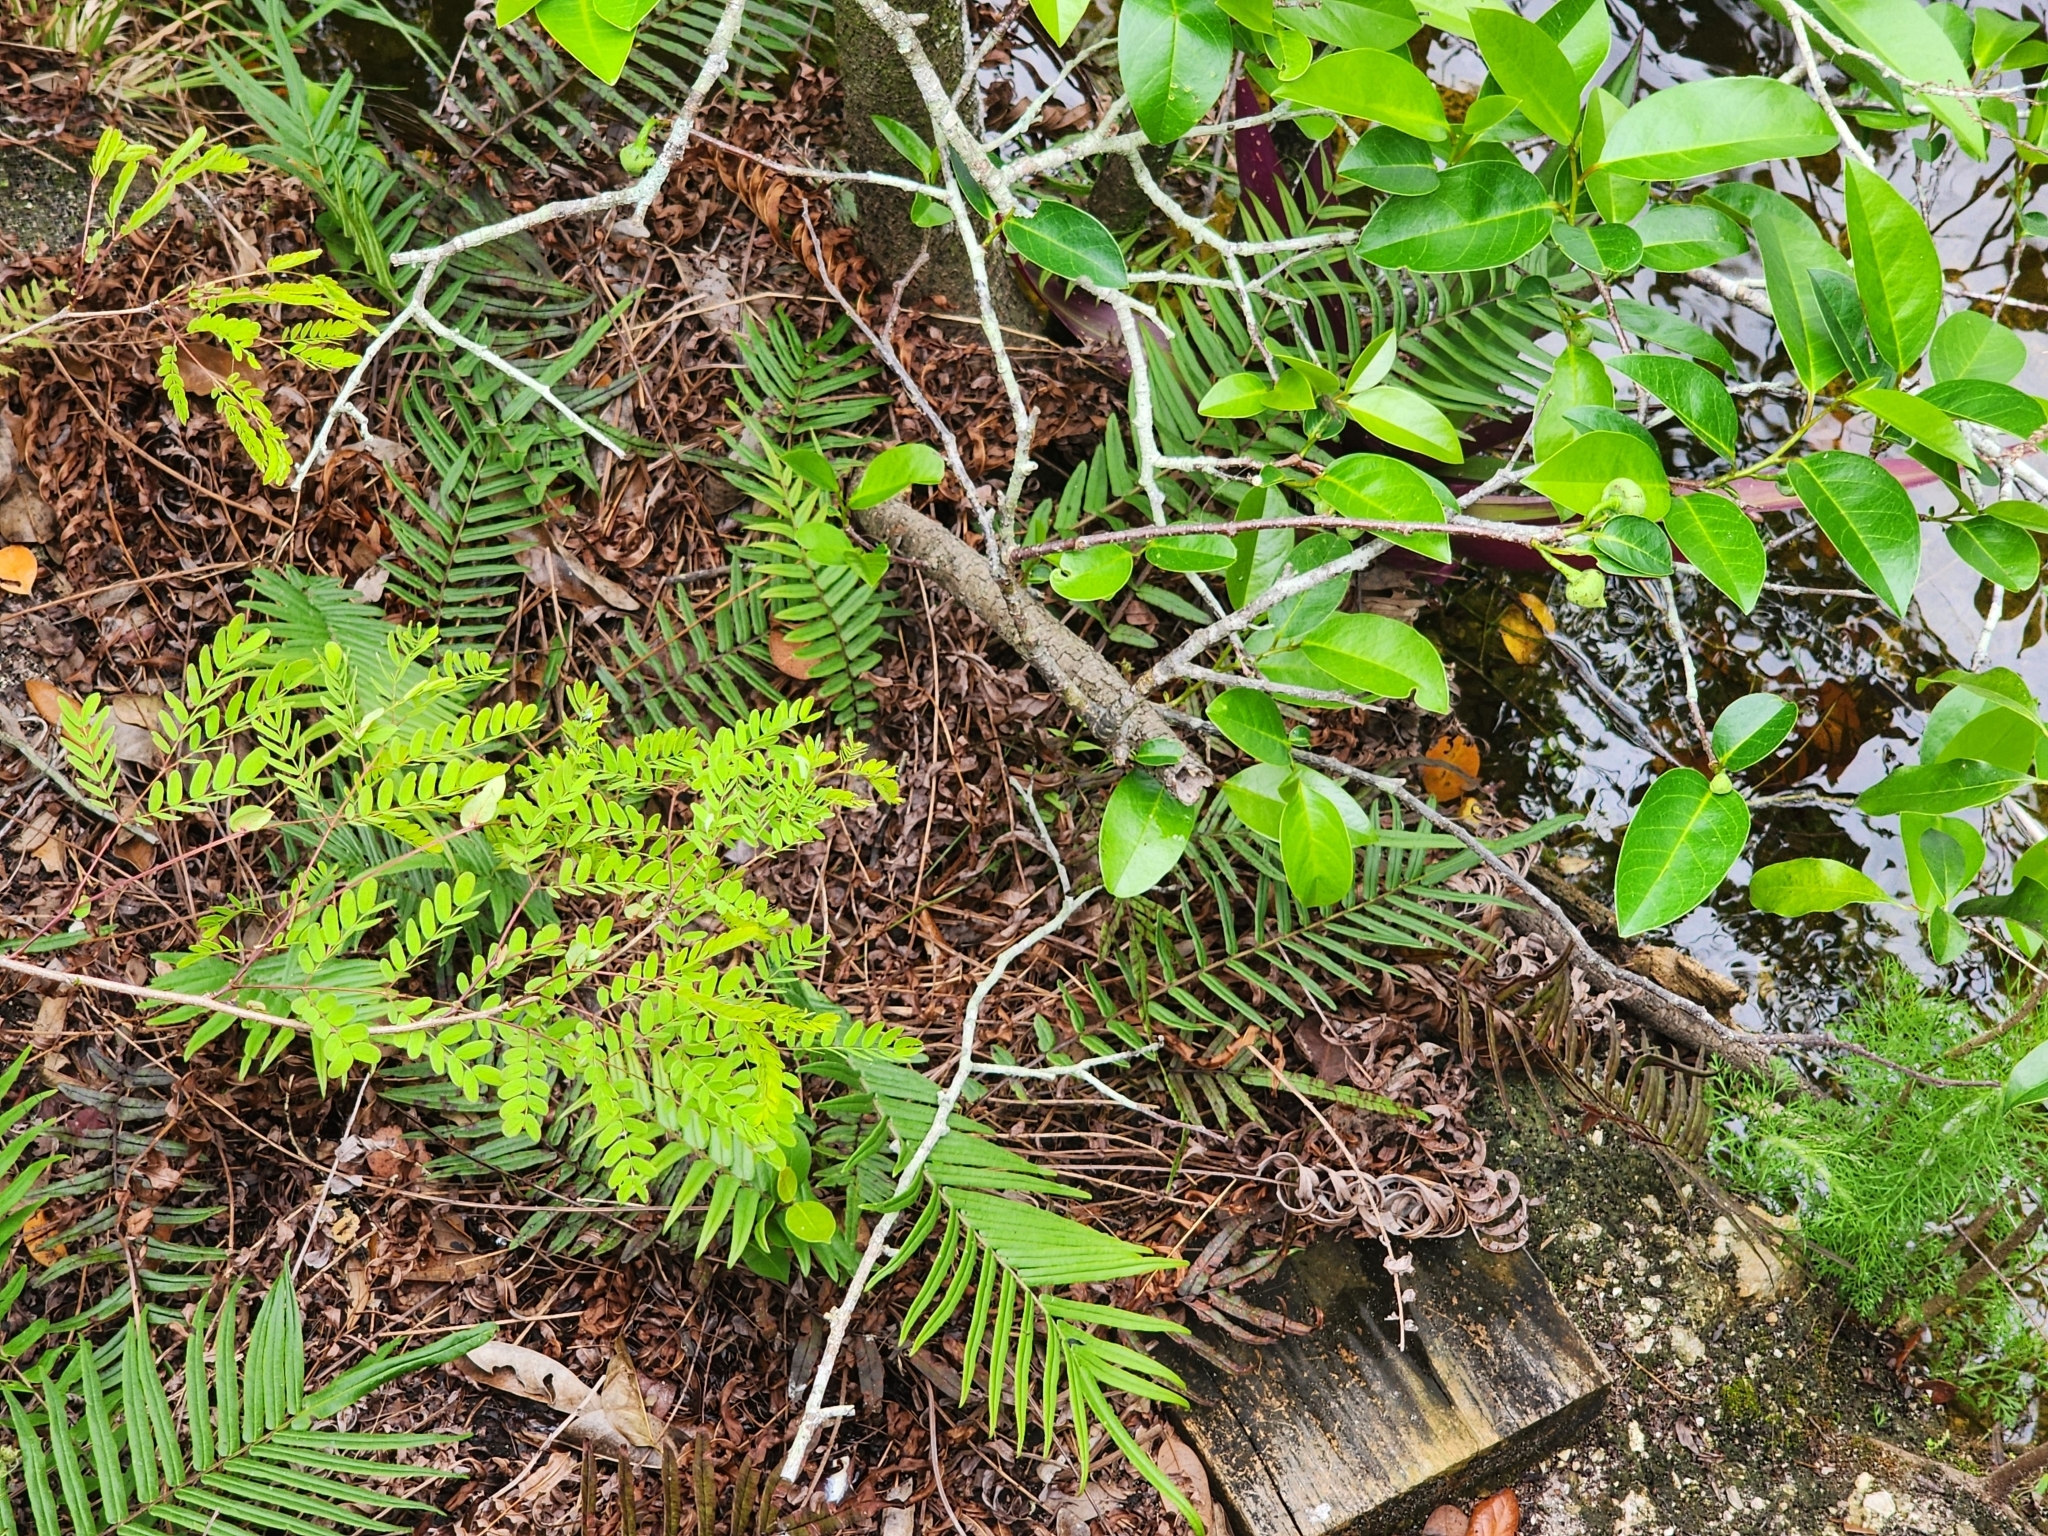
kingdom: Plantae
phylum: Tracheophyta
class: Polypodiopsida
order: Polypodiales
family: Pteridaceae
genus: Pteris
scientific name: Pteris vittata
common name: Ladder brake
